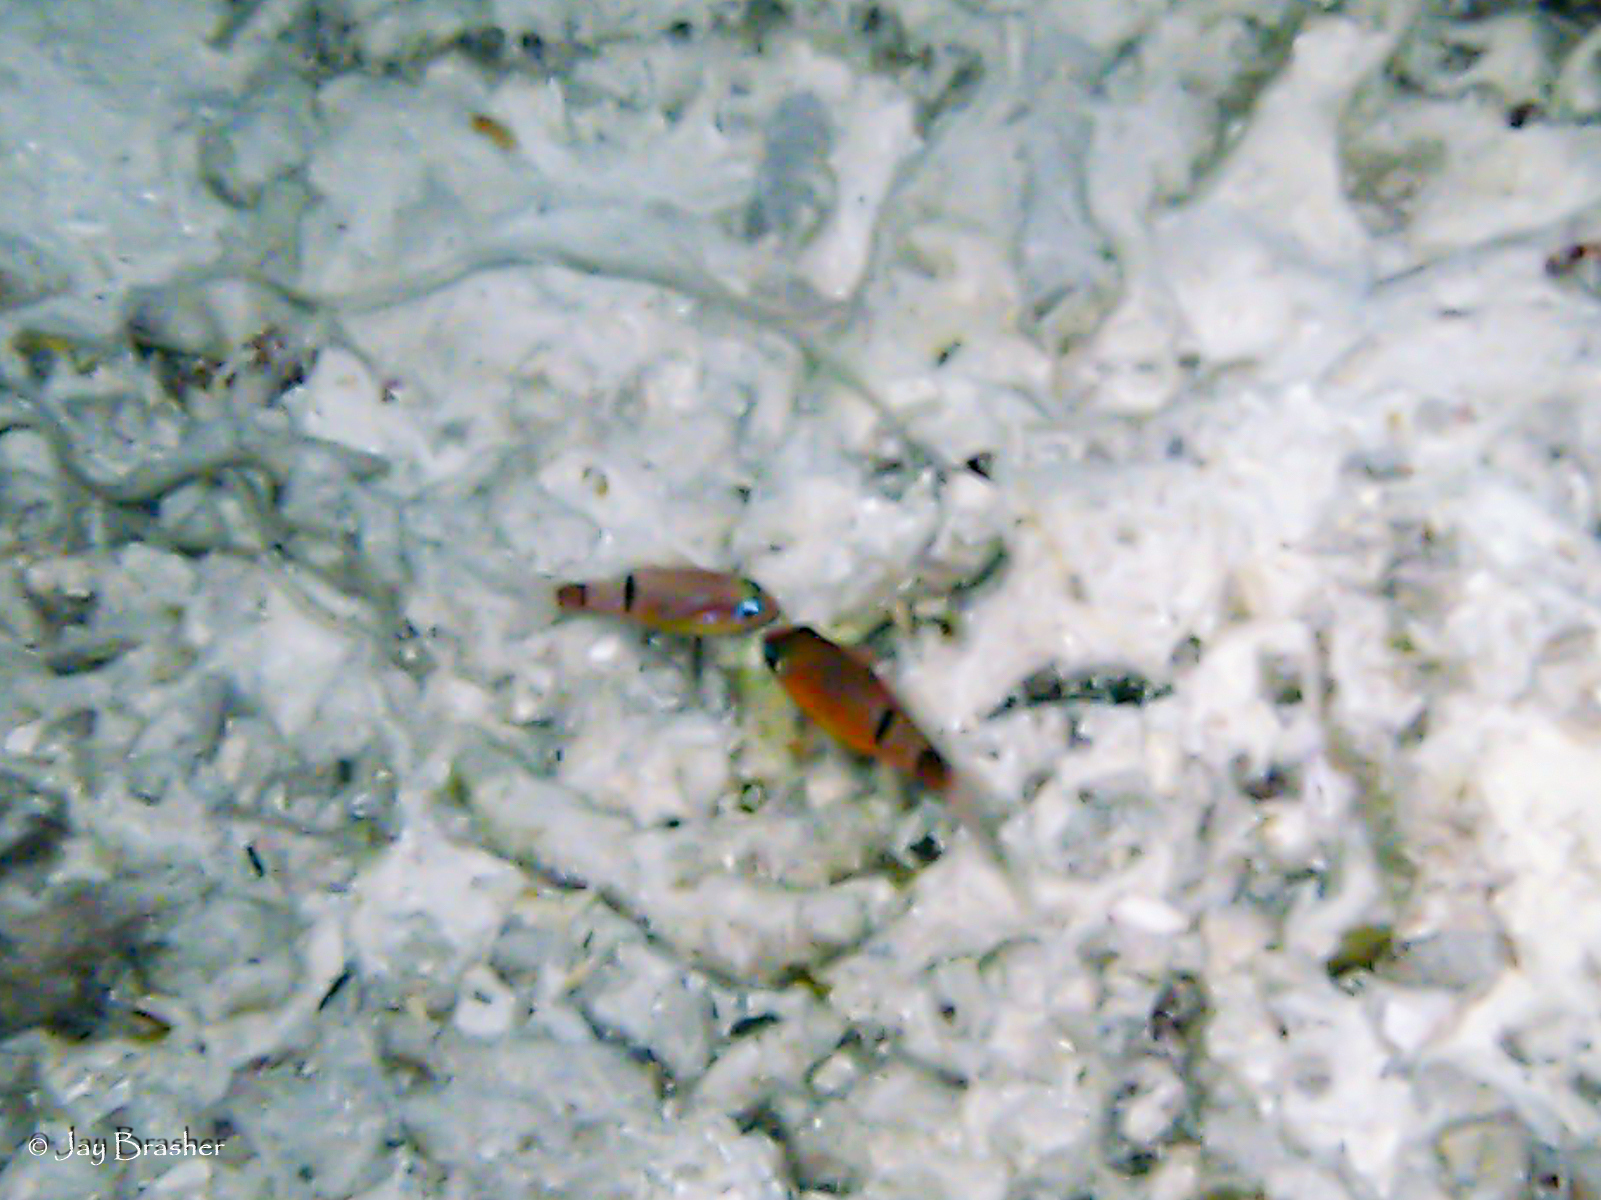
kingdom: Animalia
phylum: Chordata
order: Perciformes
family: Apogonidae
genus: Apogon
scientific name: Apogon townsendi
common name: Belted cardinalfish
